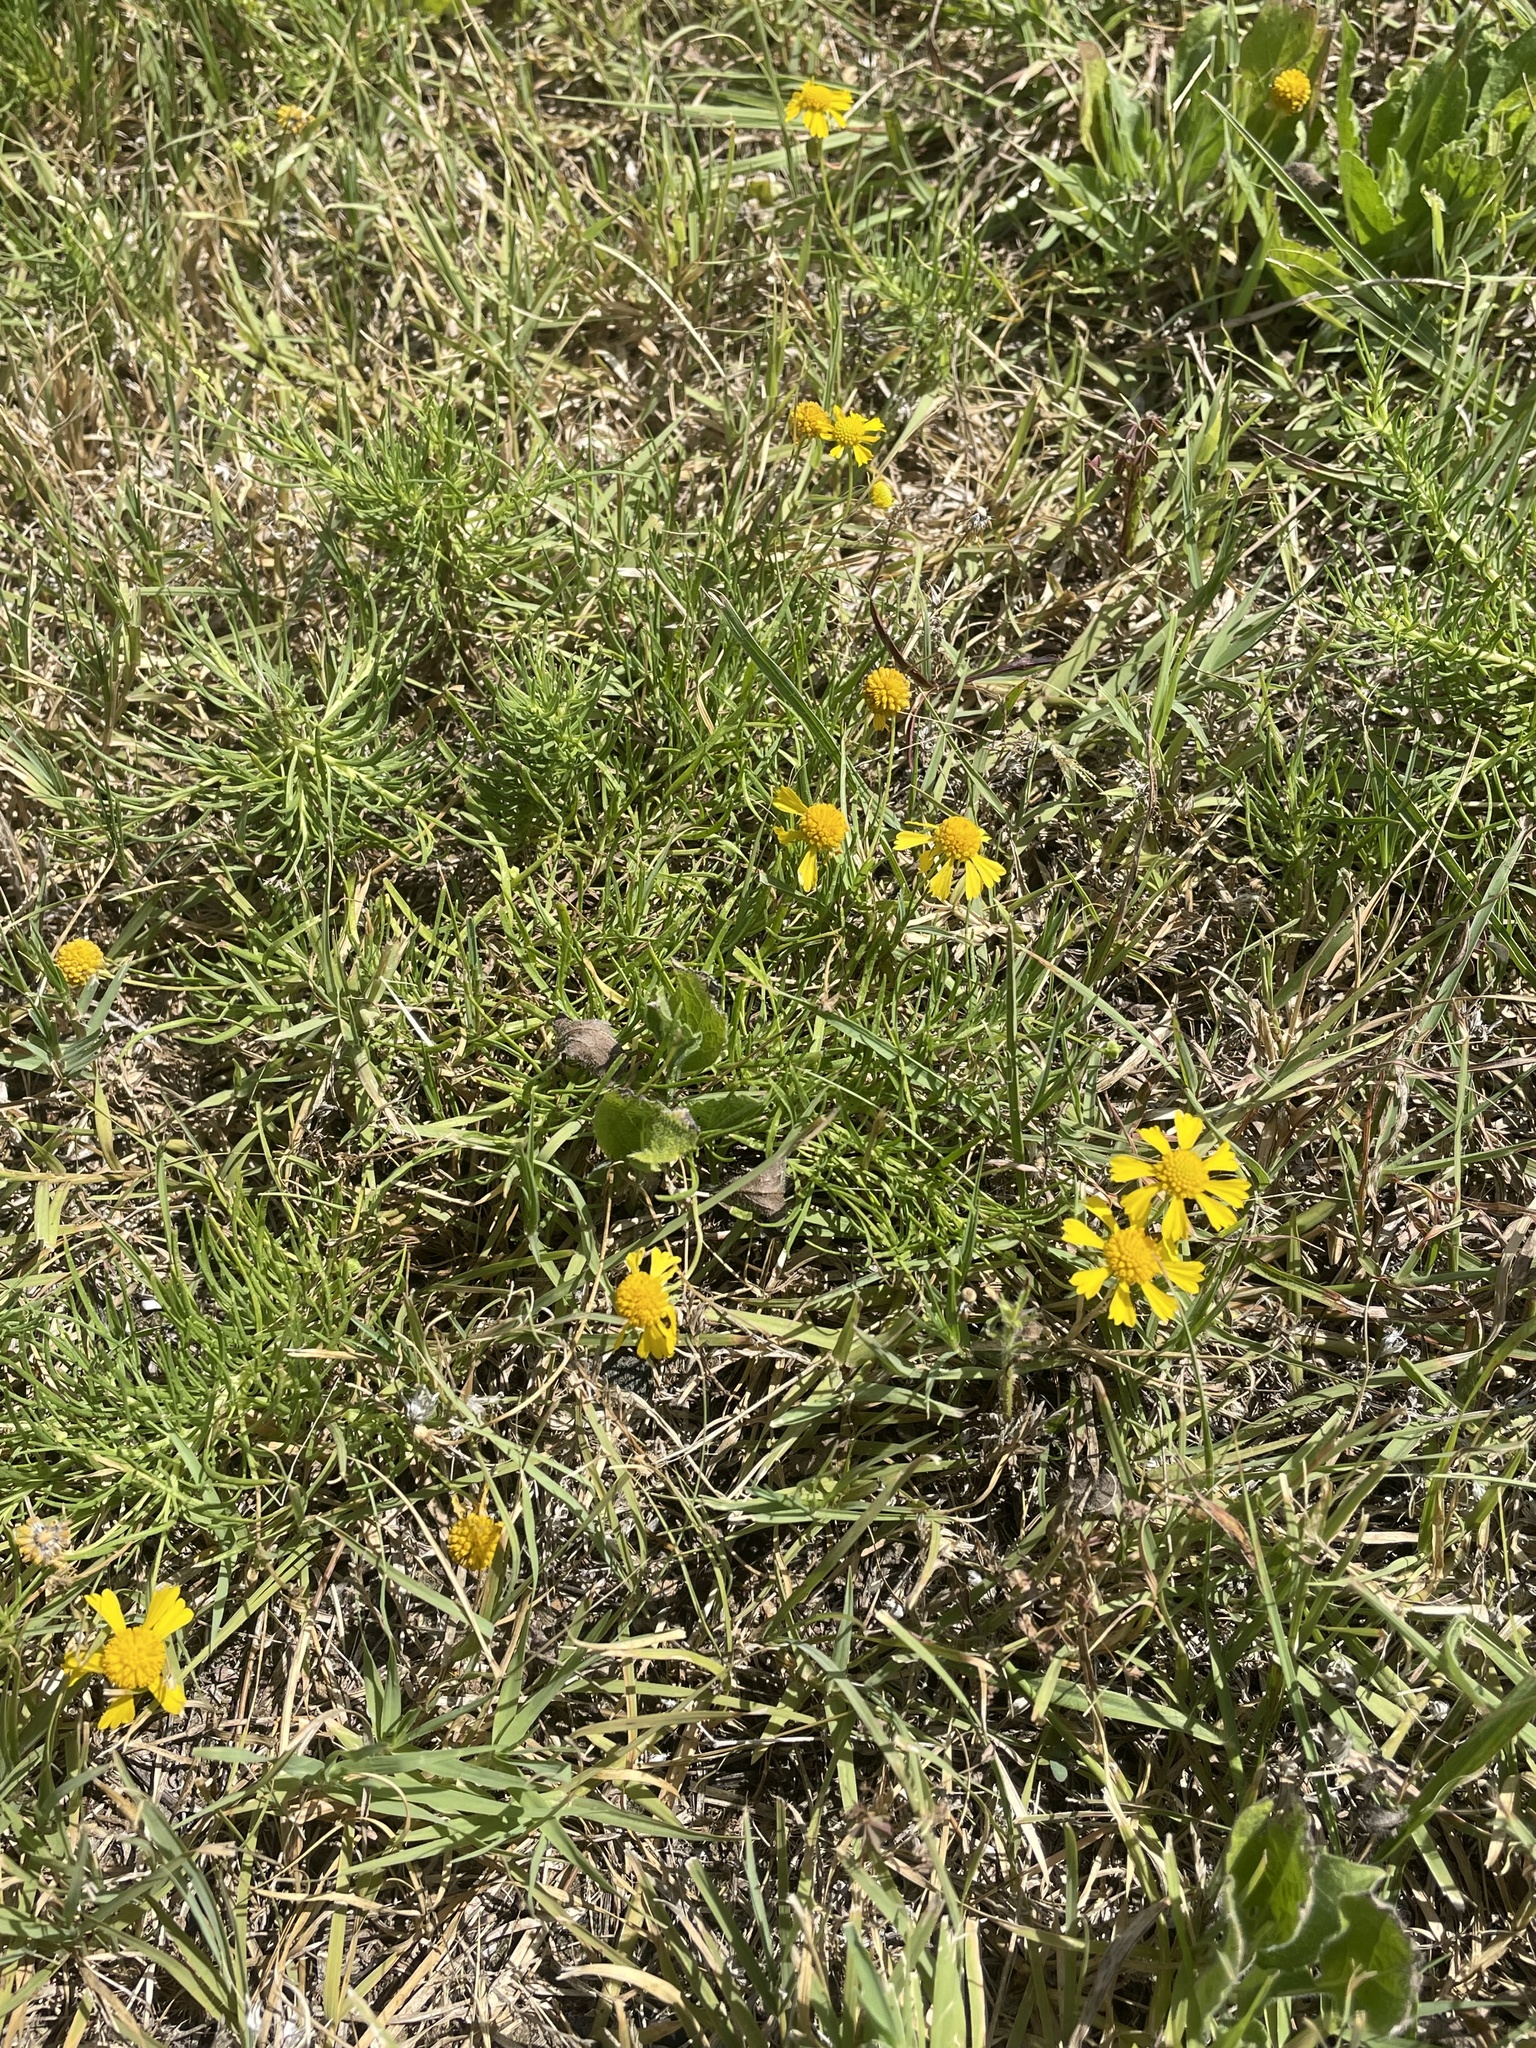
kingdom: Plantae
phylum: Tracheophyta
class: Magnoliopsida
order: Asterales
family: Asteraceae
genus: Helenium
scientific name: Helenium amarum
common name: Bitter sneezeweed
